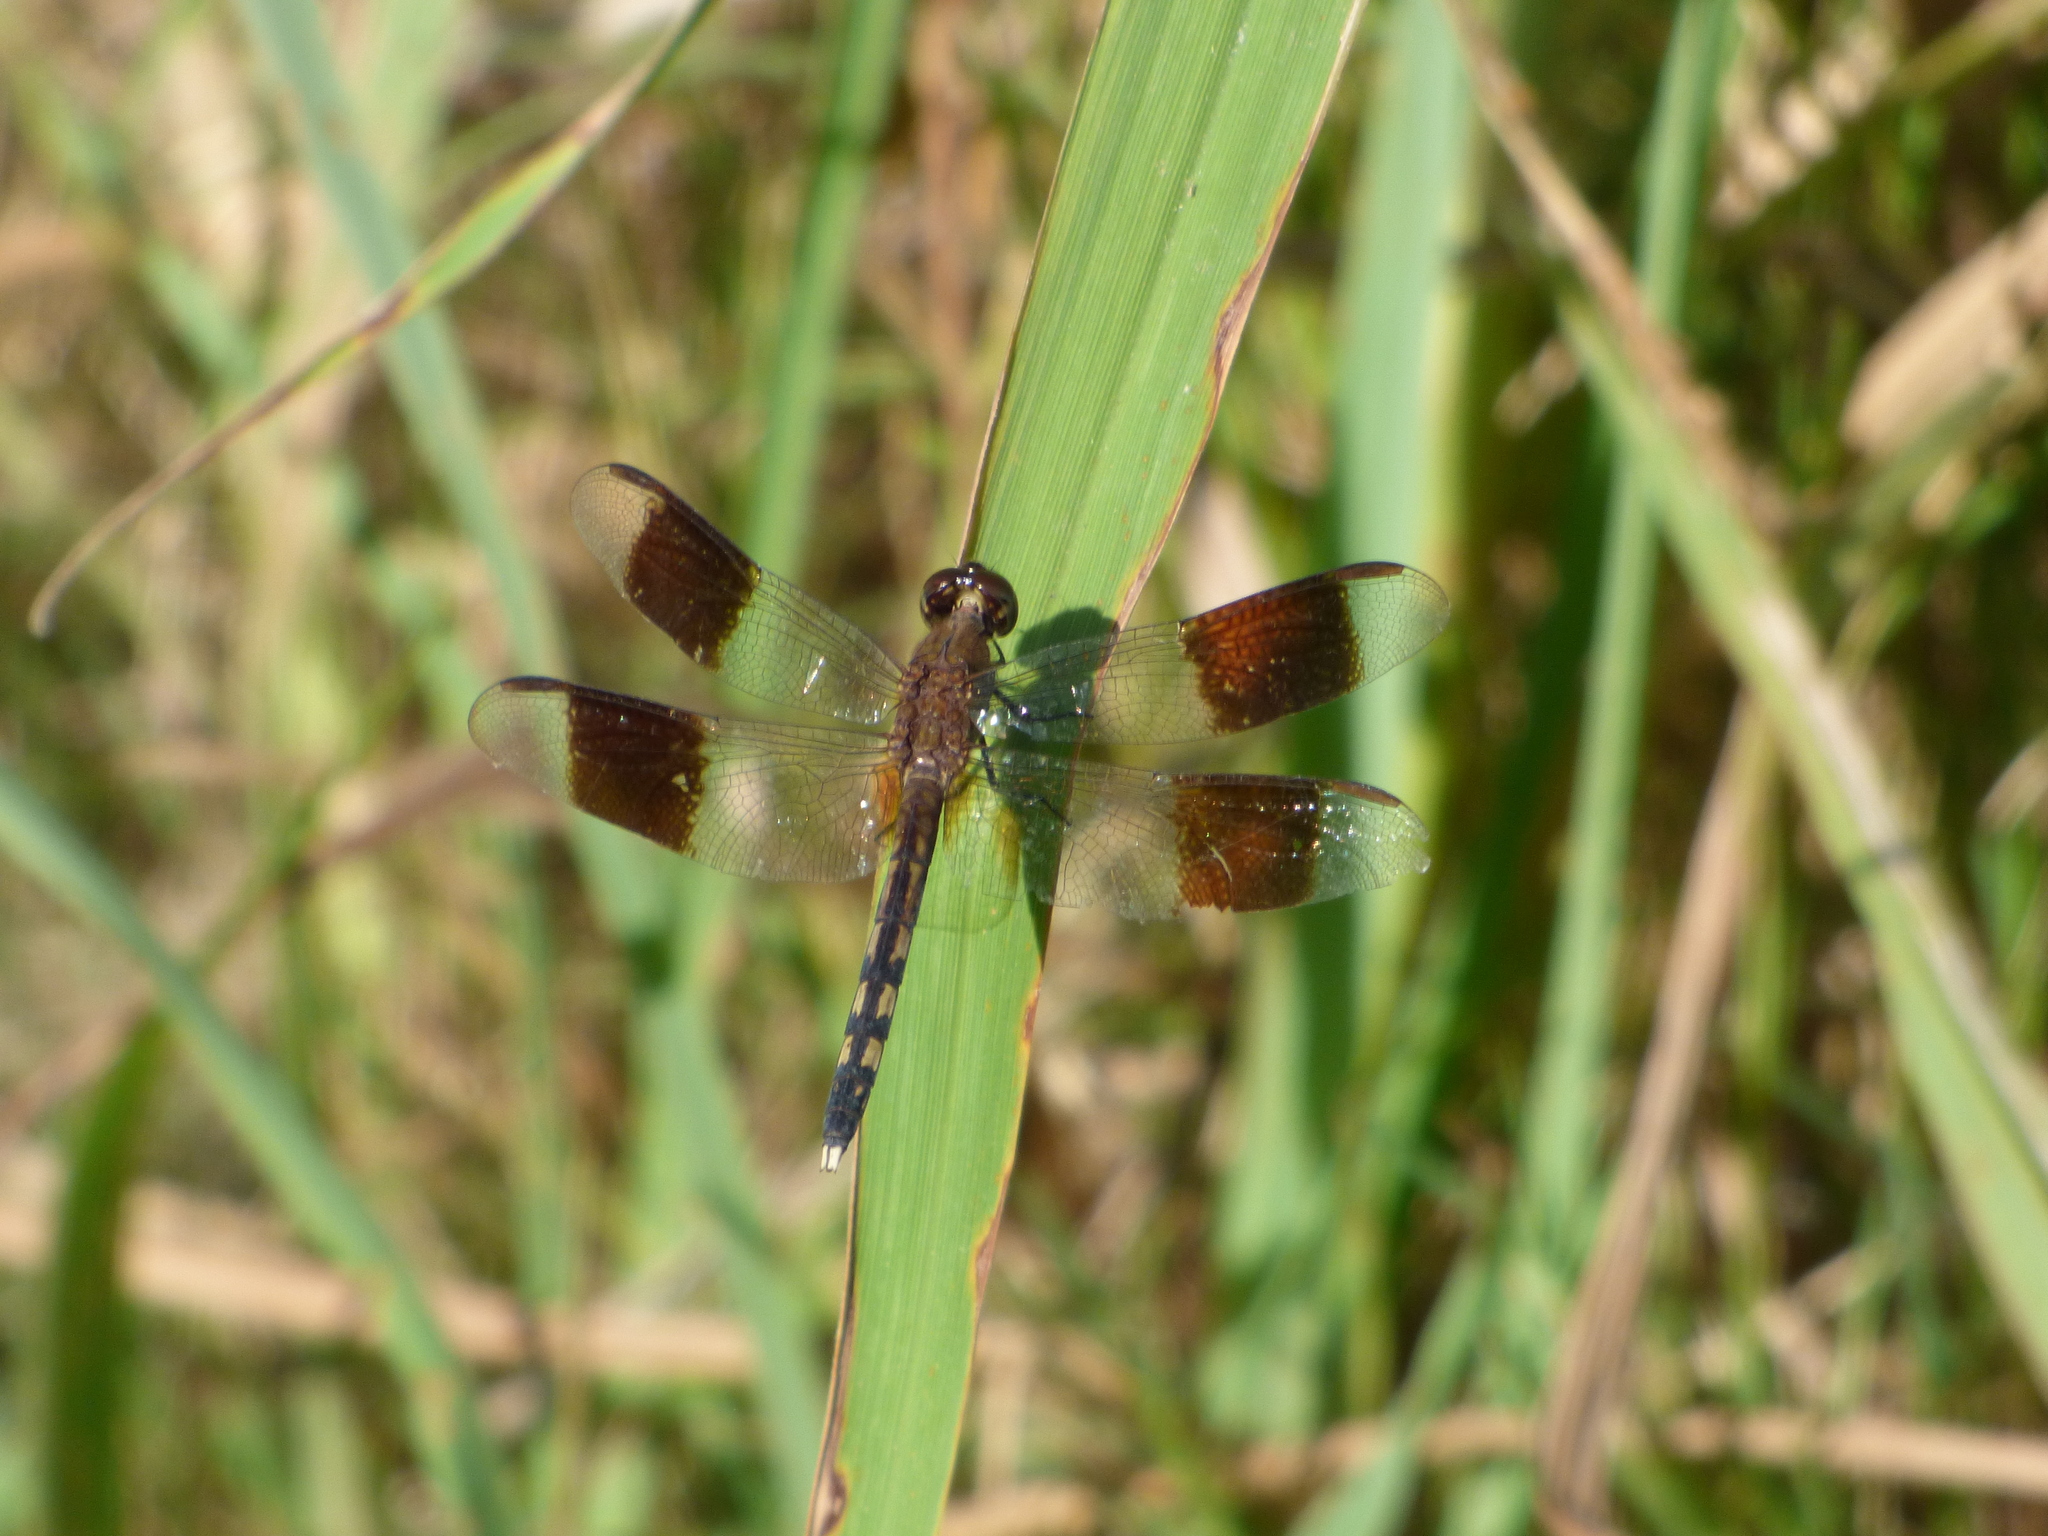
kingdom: Animalia
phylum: Arthropoda
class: Insecta
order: Odonata
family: Libellulidae
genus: Erythrodiplax
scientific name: Erythrodiplax umbrata
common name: Band-winged dragonlet
